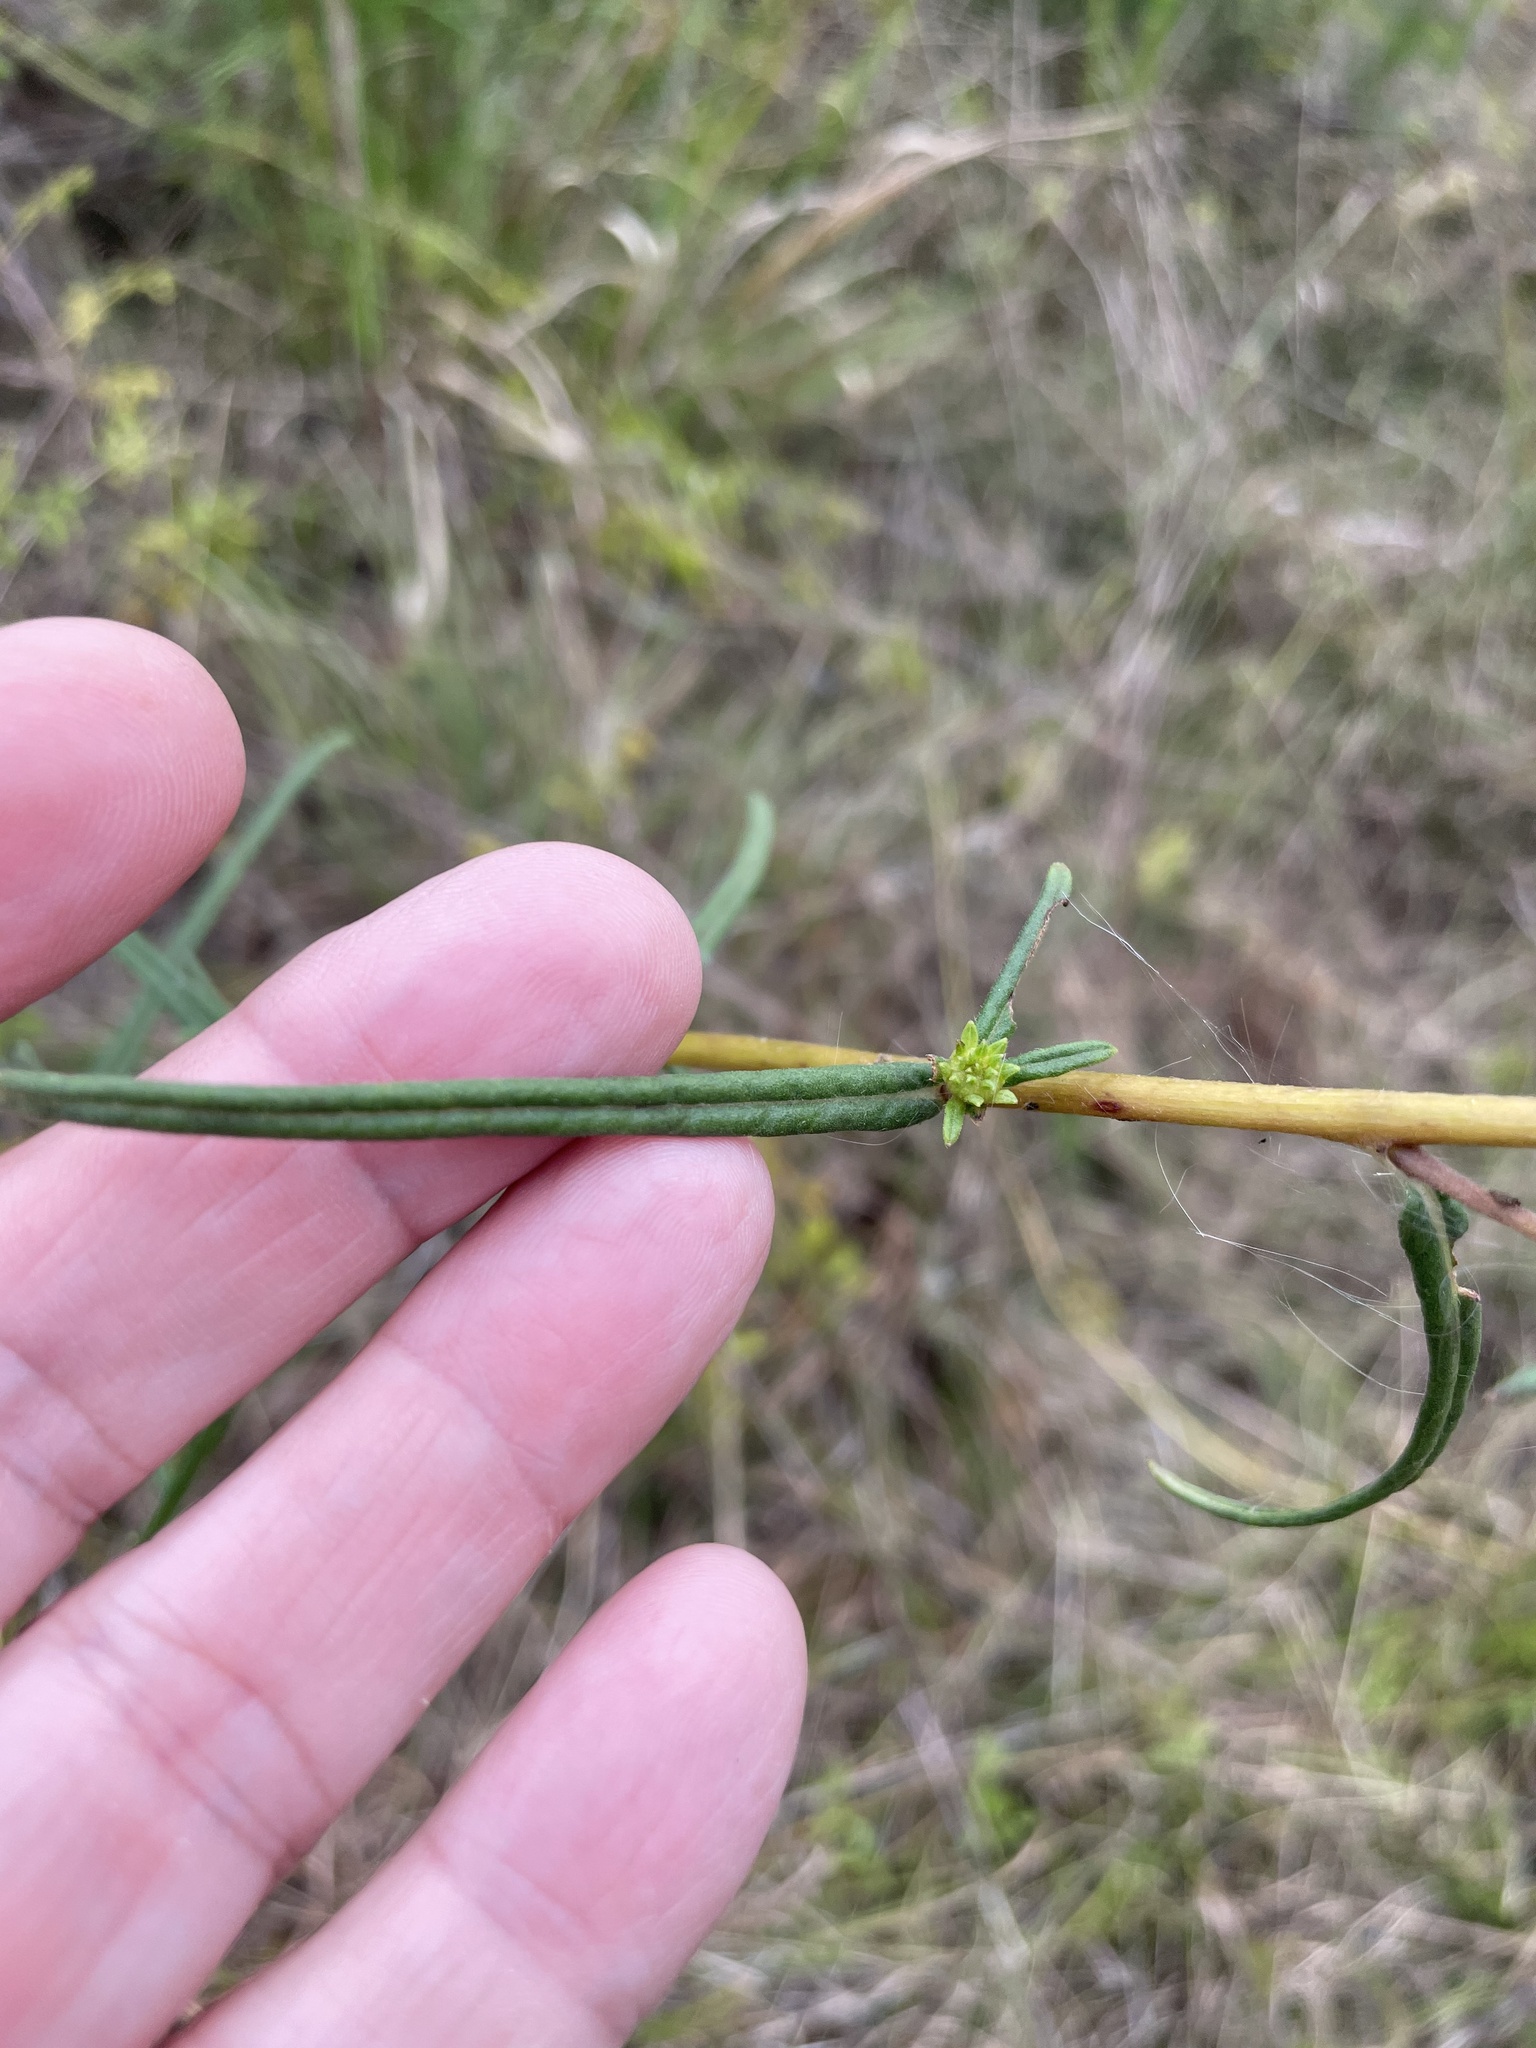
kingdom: Plantae
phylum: Tracheophyta
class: Magnoliopsida
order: Asterales
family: Asteraceae
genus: Helianthus
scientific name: Helianthus angustifolius
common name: Swamp sunflower
